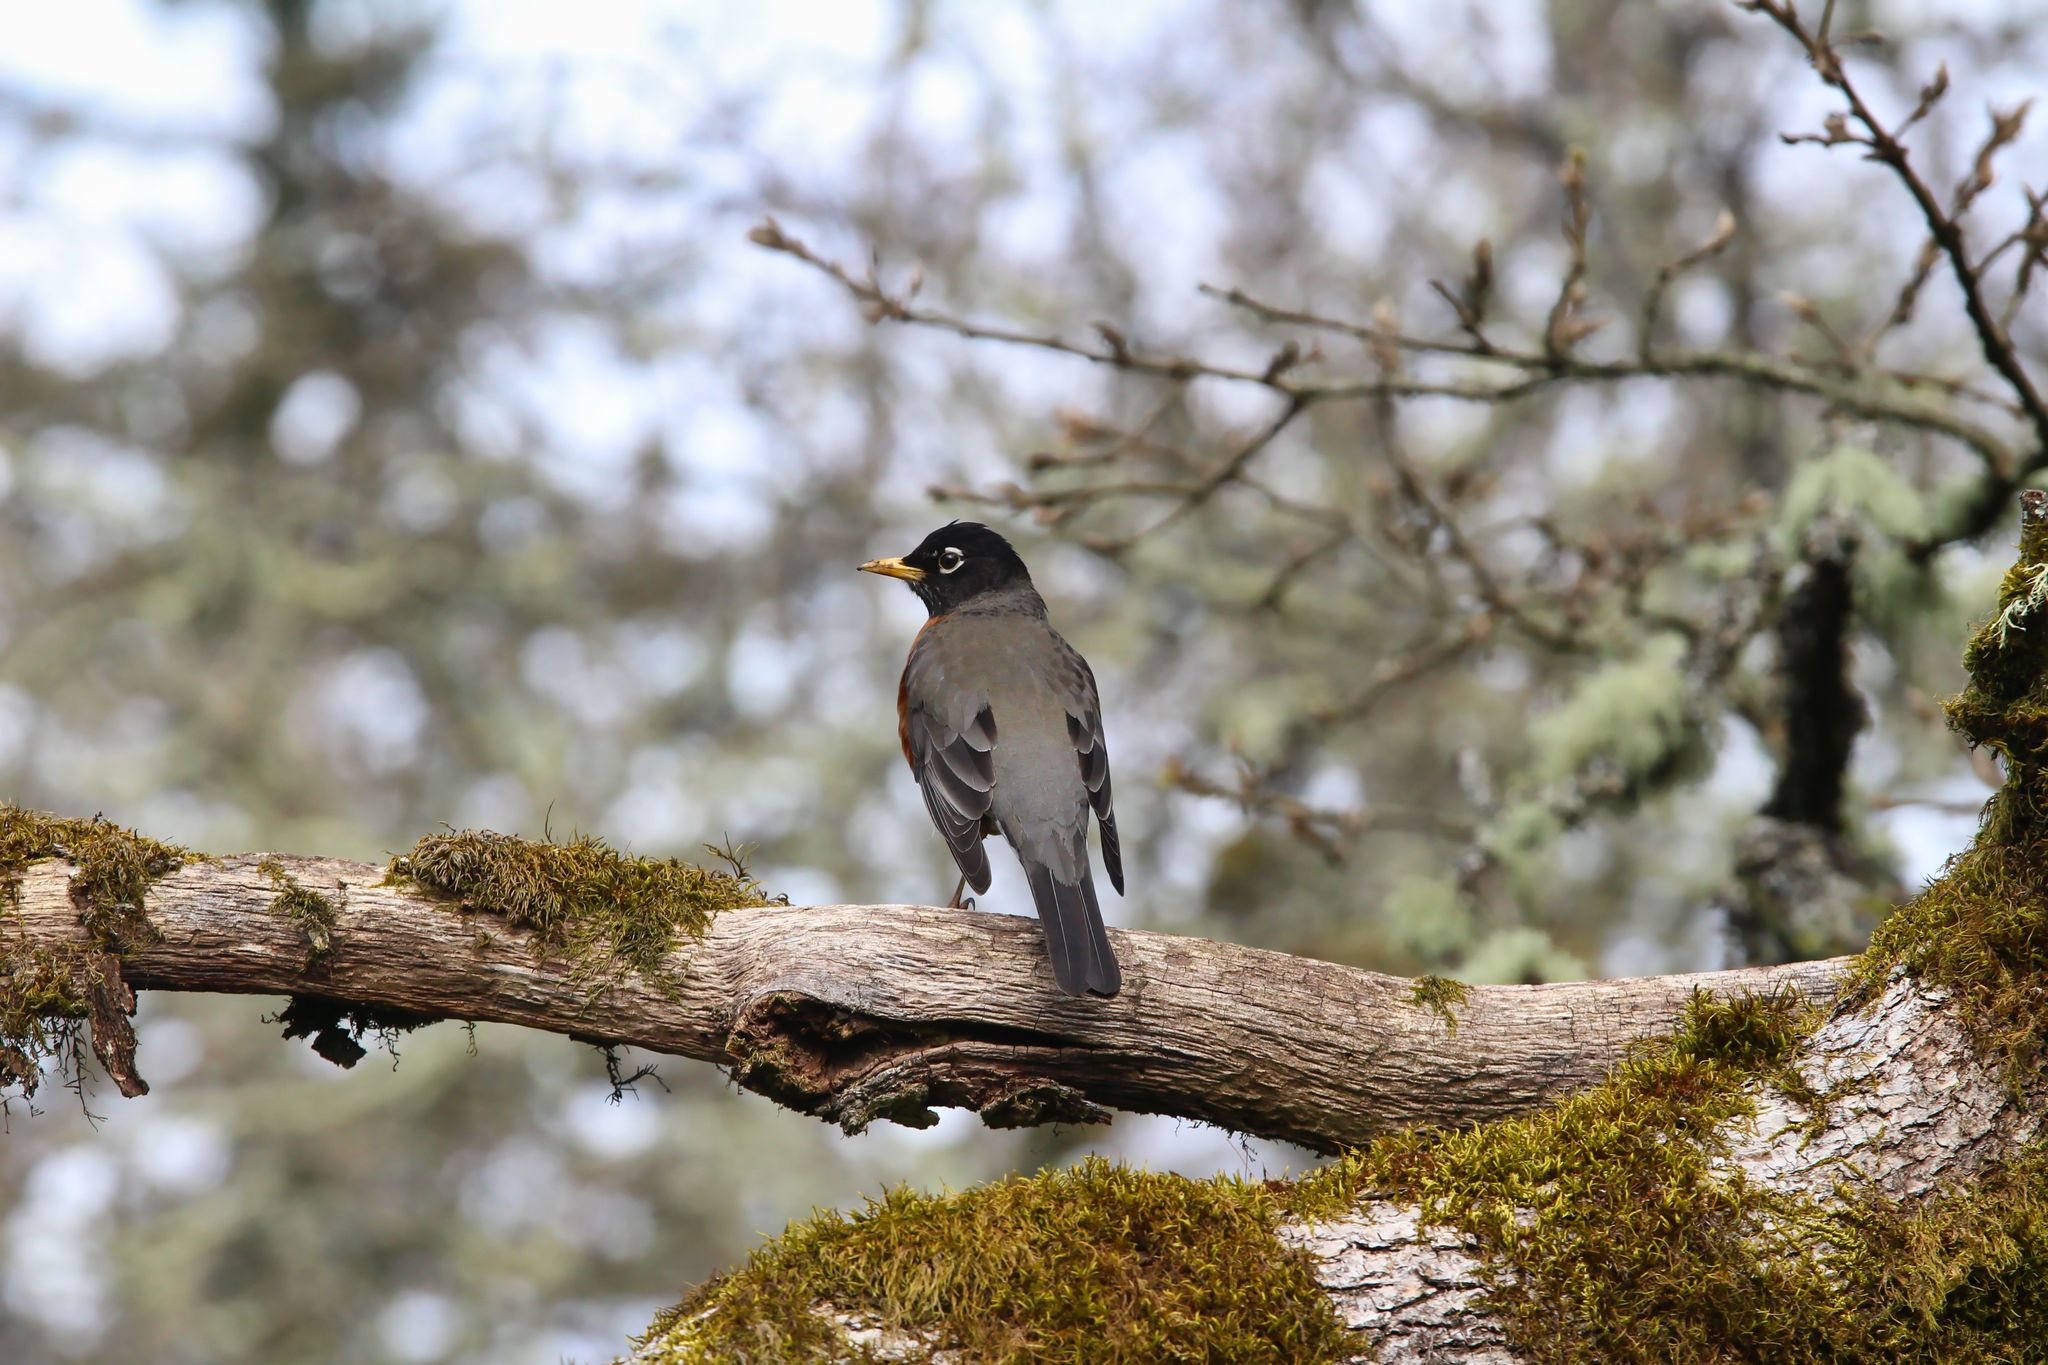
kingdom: Animalia
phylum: Chordata
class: Aves
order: Passeriformes
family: Turdidae
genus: Turdus
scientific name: Turdus migratorius
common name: American robin
